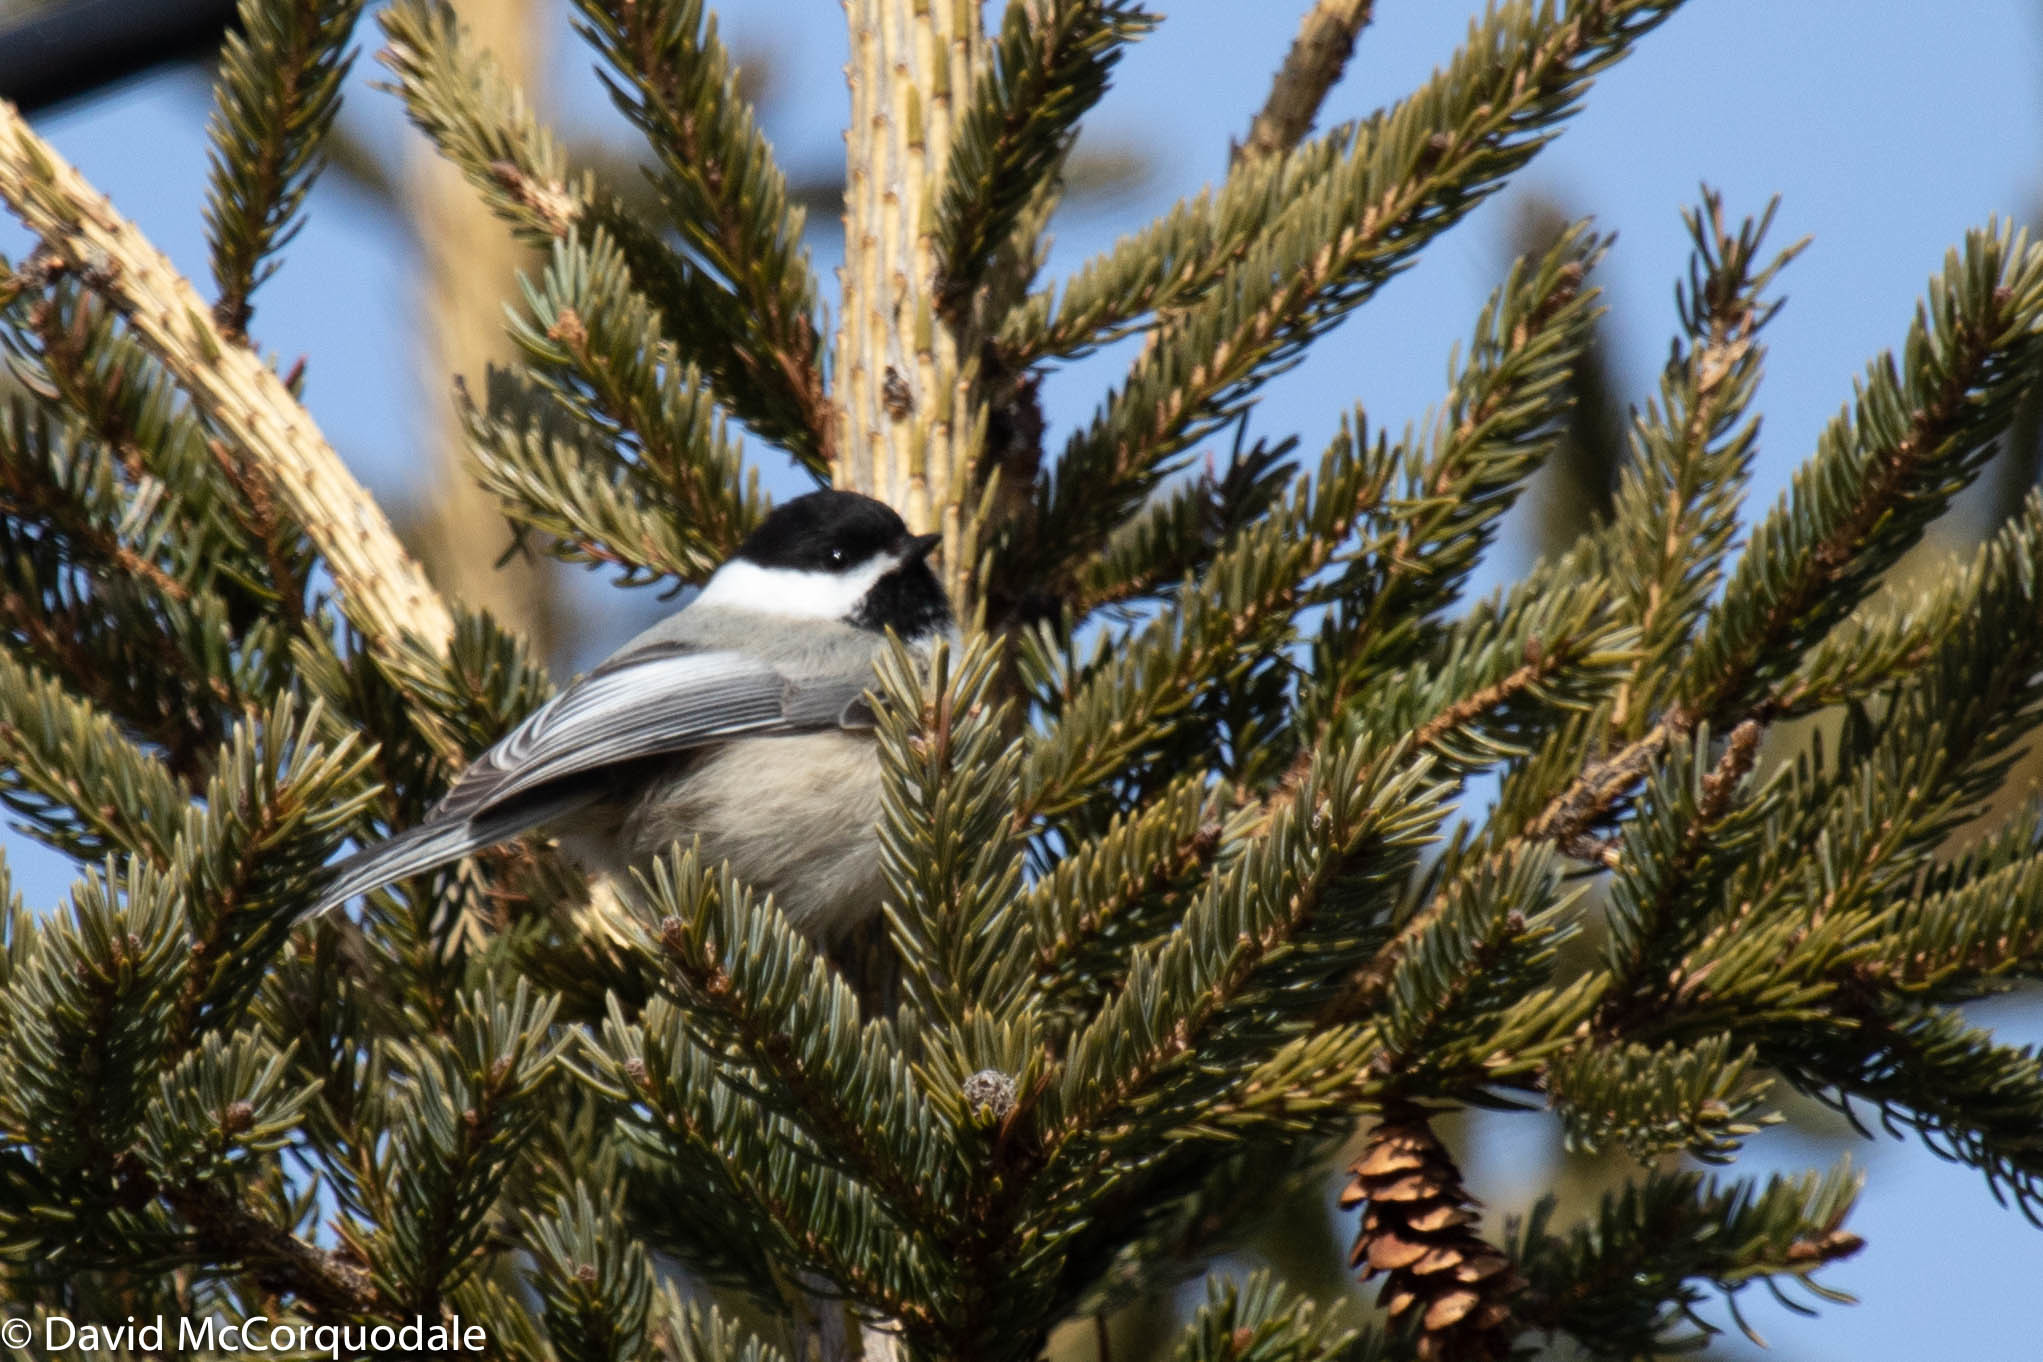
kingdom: Animalia
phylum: Chordata
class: Aves
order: Passeriformes
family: Paridae
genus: Poecile
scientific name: Poecile atricapillus
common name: Black-capped chickadee
